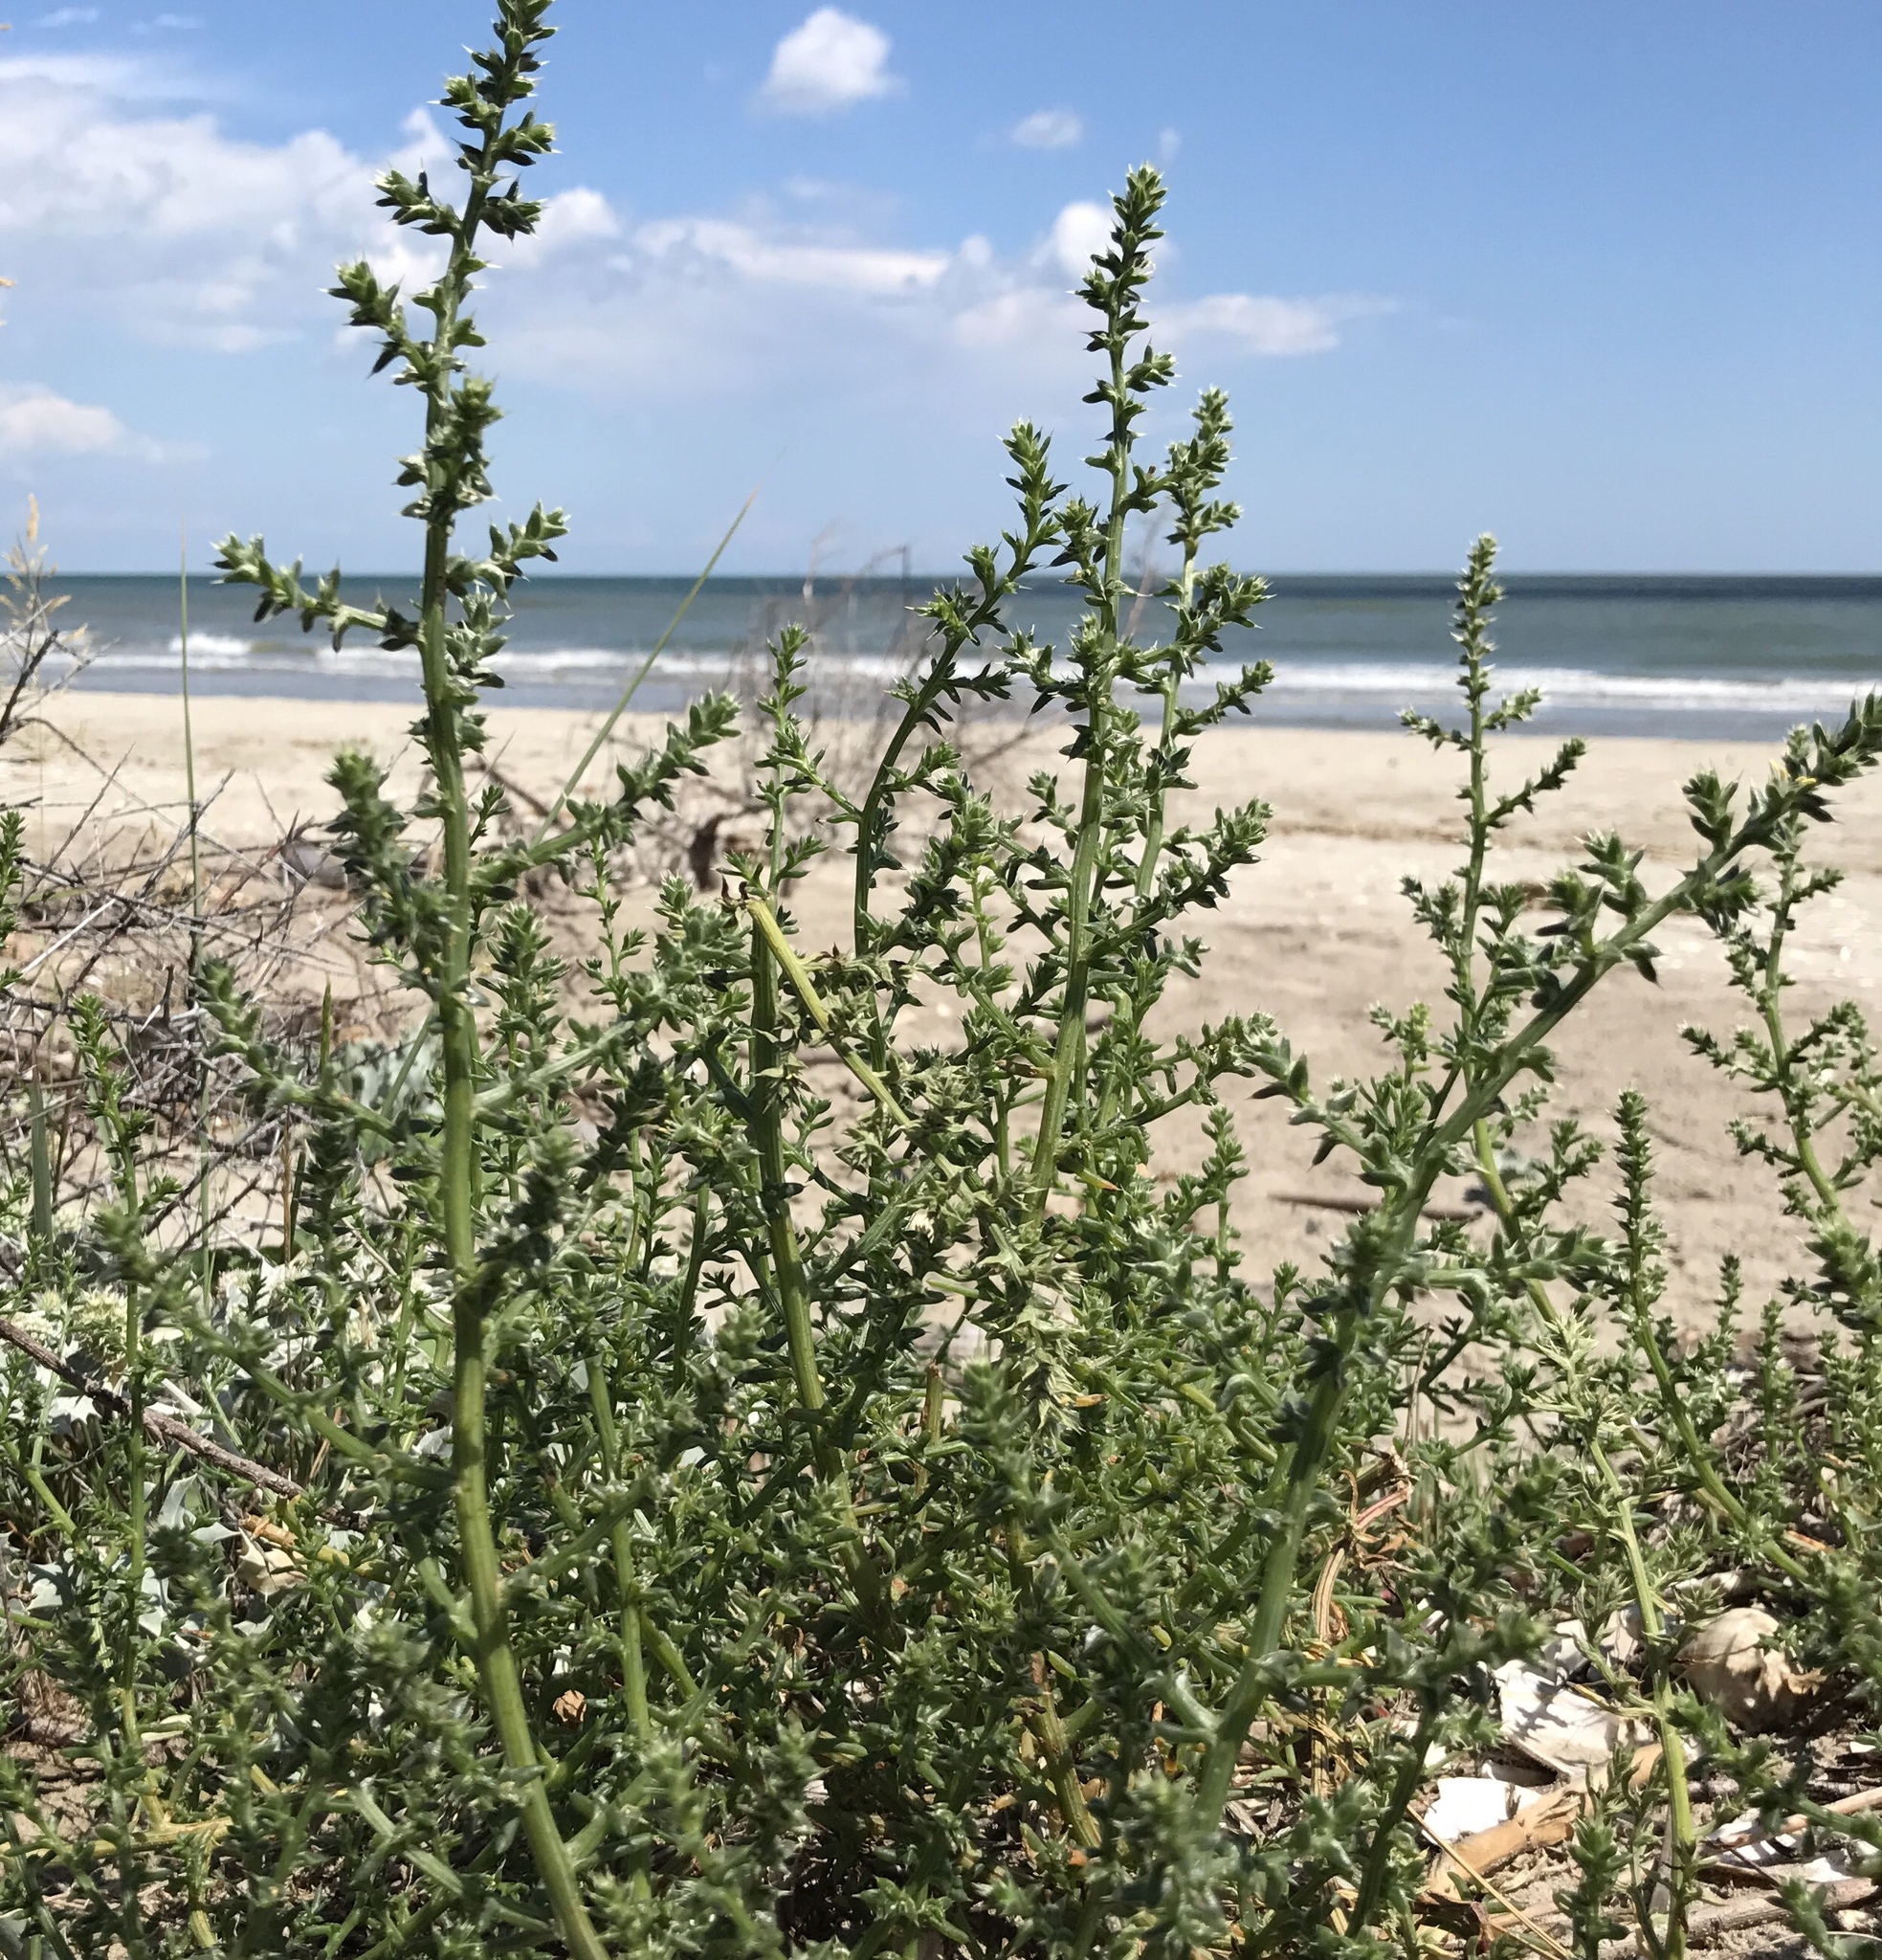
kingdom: Plantae
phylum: Tracheophyta
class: Magnoliopsida
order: Caryophyllales
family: Amaranthaceae
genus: Salsola
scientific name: Salsola kali
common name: Saltwort
